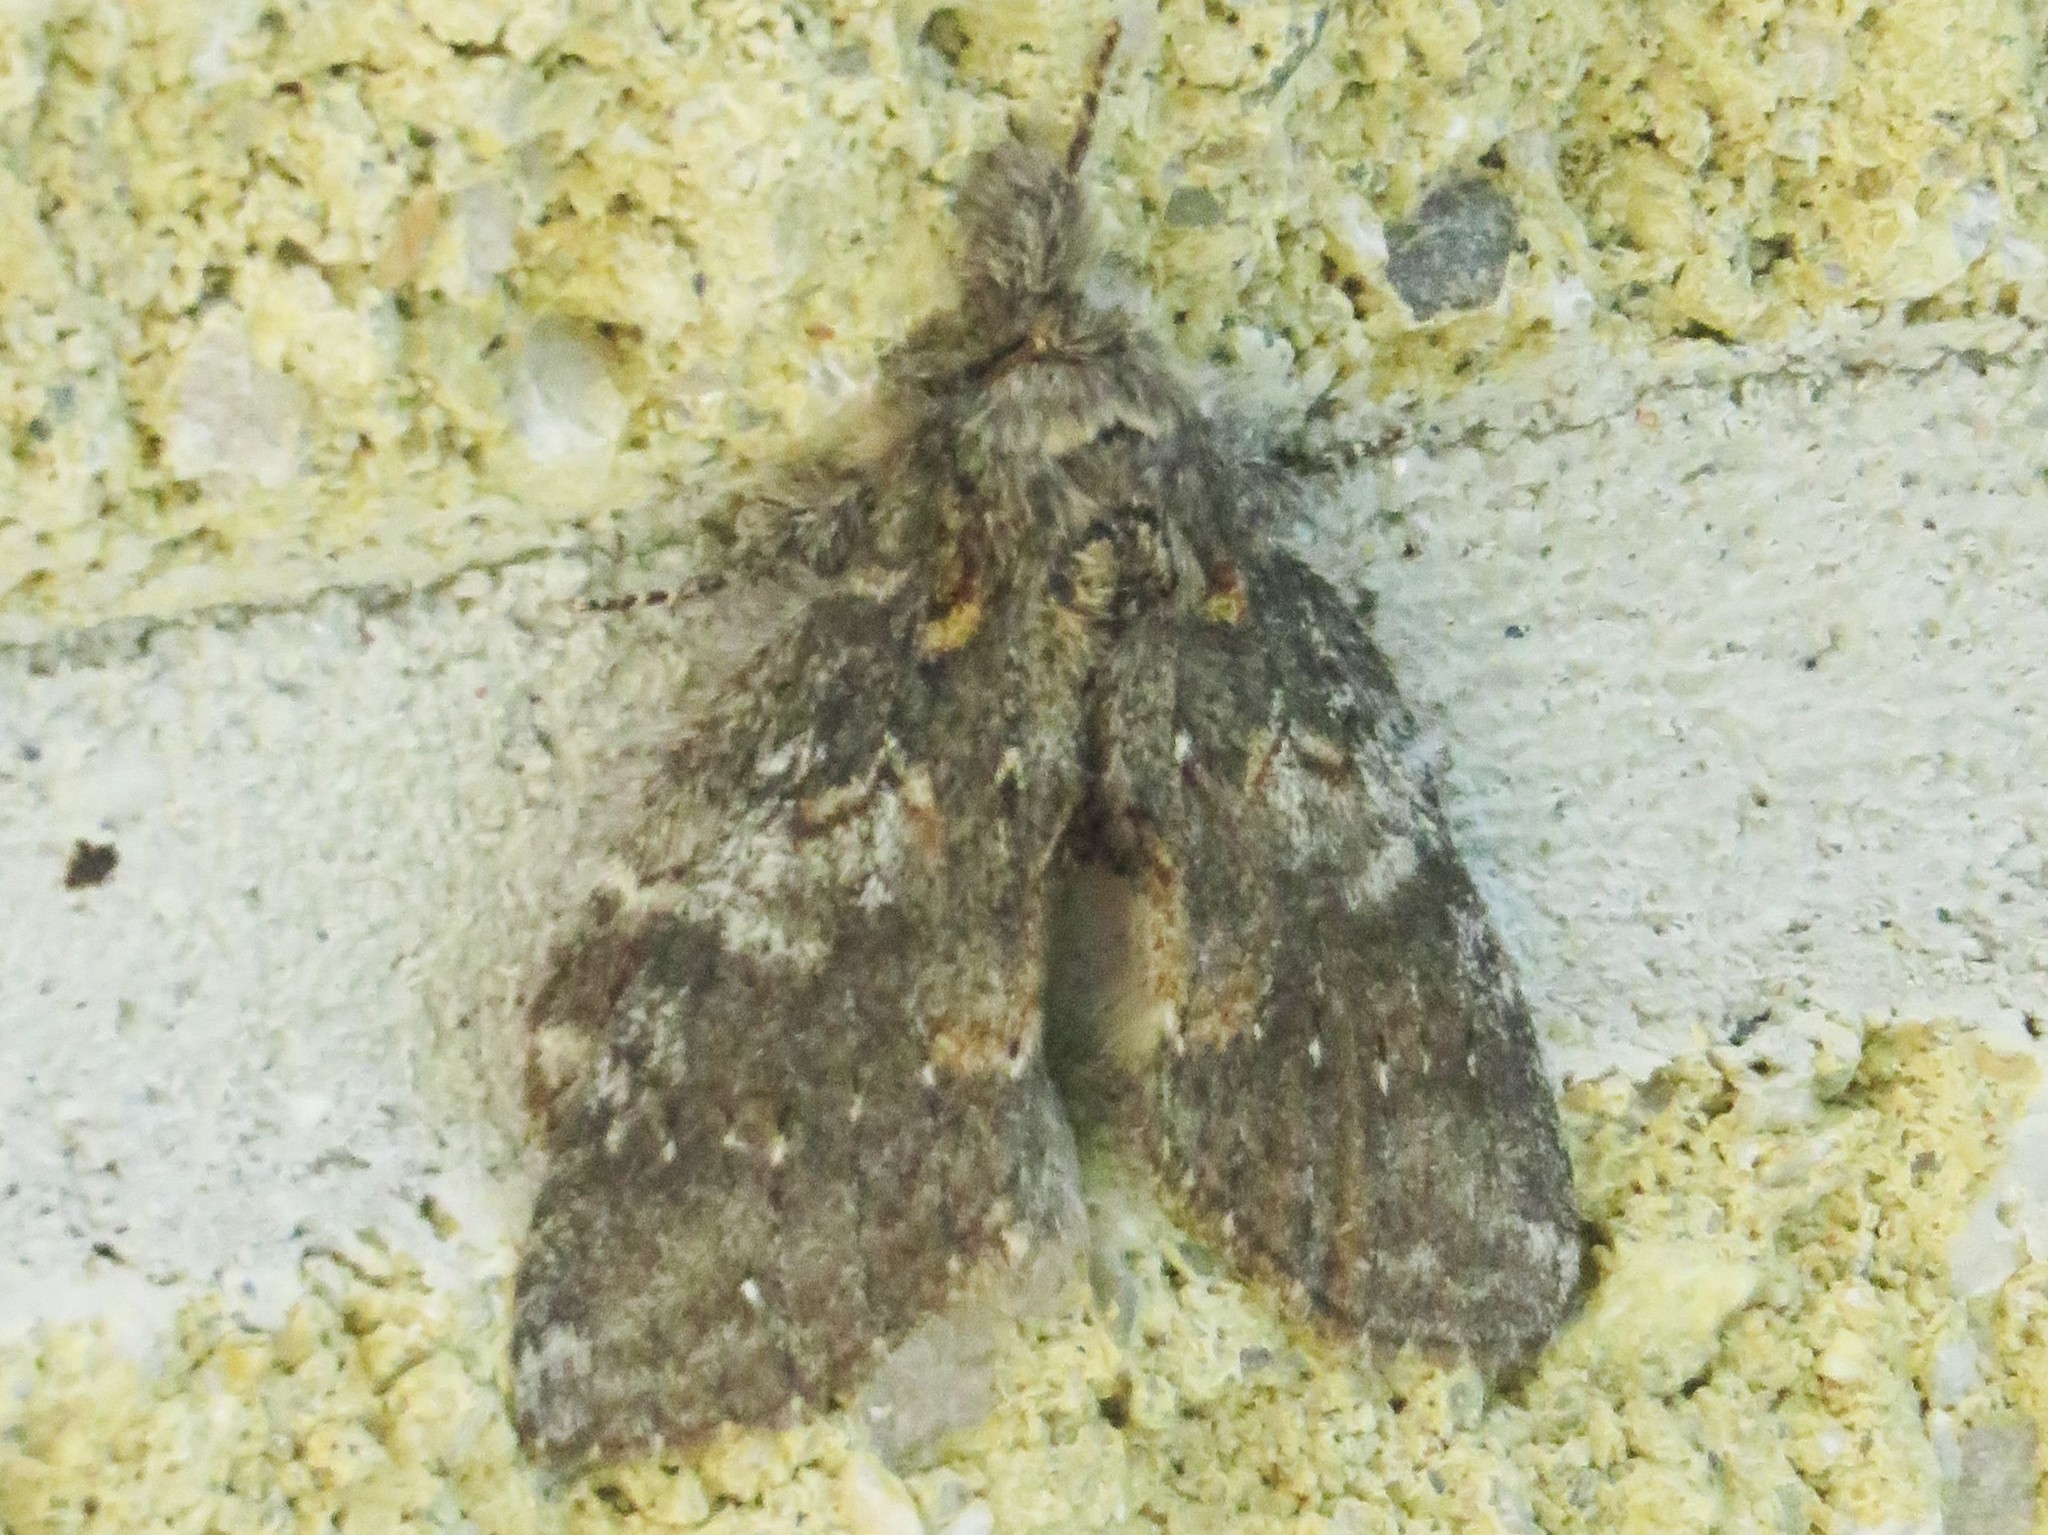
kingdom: Animalia
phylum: Arthropoda
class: Insecta
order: Lepidoptera
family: Notodontidae
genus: Peridea
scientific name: Peridea angulosa
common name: Angulose prominent
